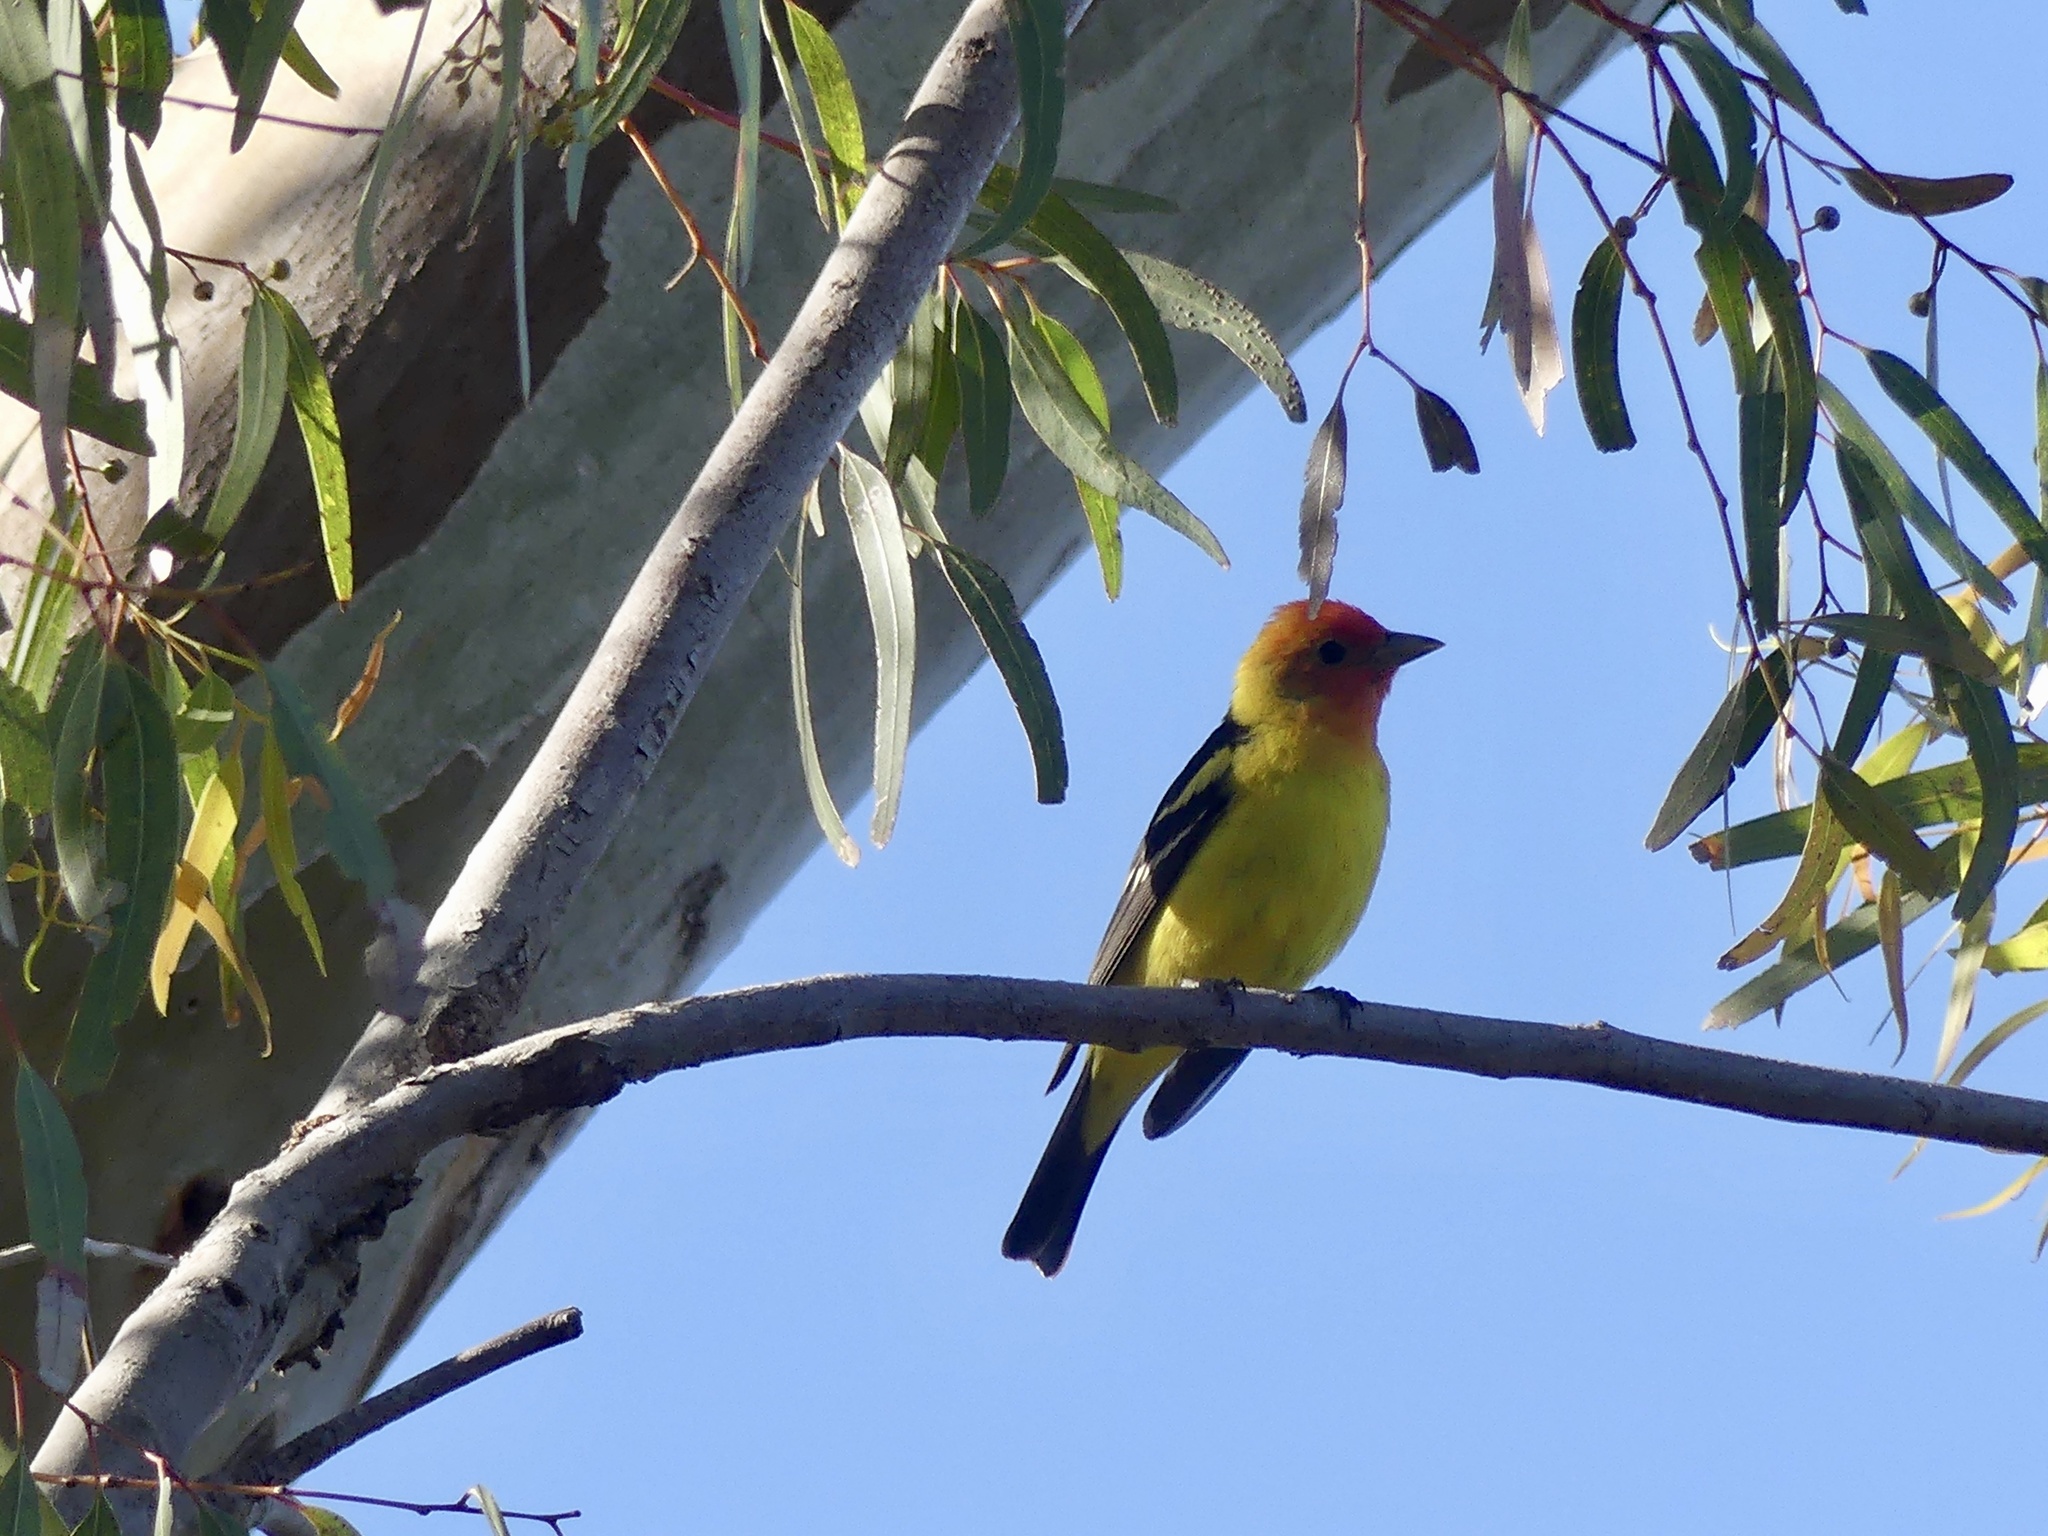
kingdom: Animalia
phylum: Chordata
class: Aves
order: Passeriformes
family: Cardinalidae
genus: Piranga
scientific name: Piranga ludoviciana
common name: Western tanager
